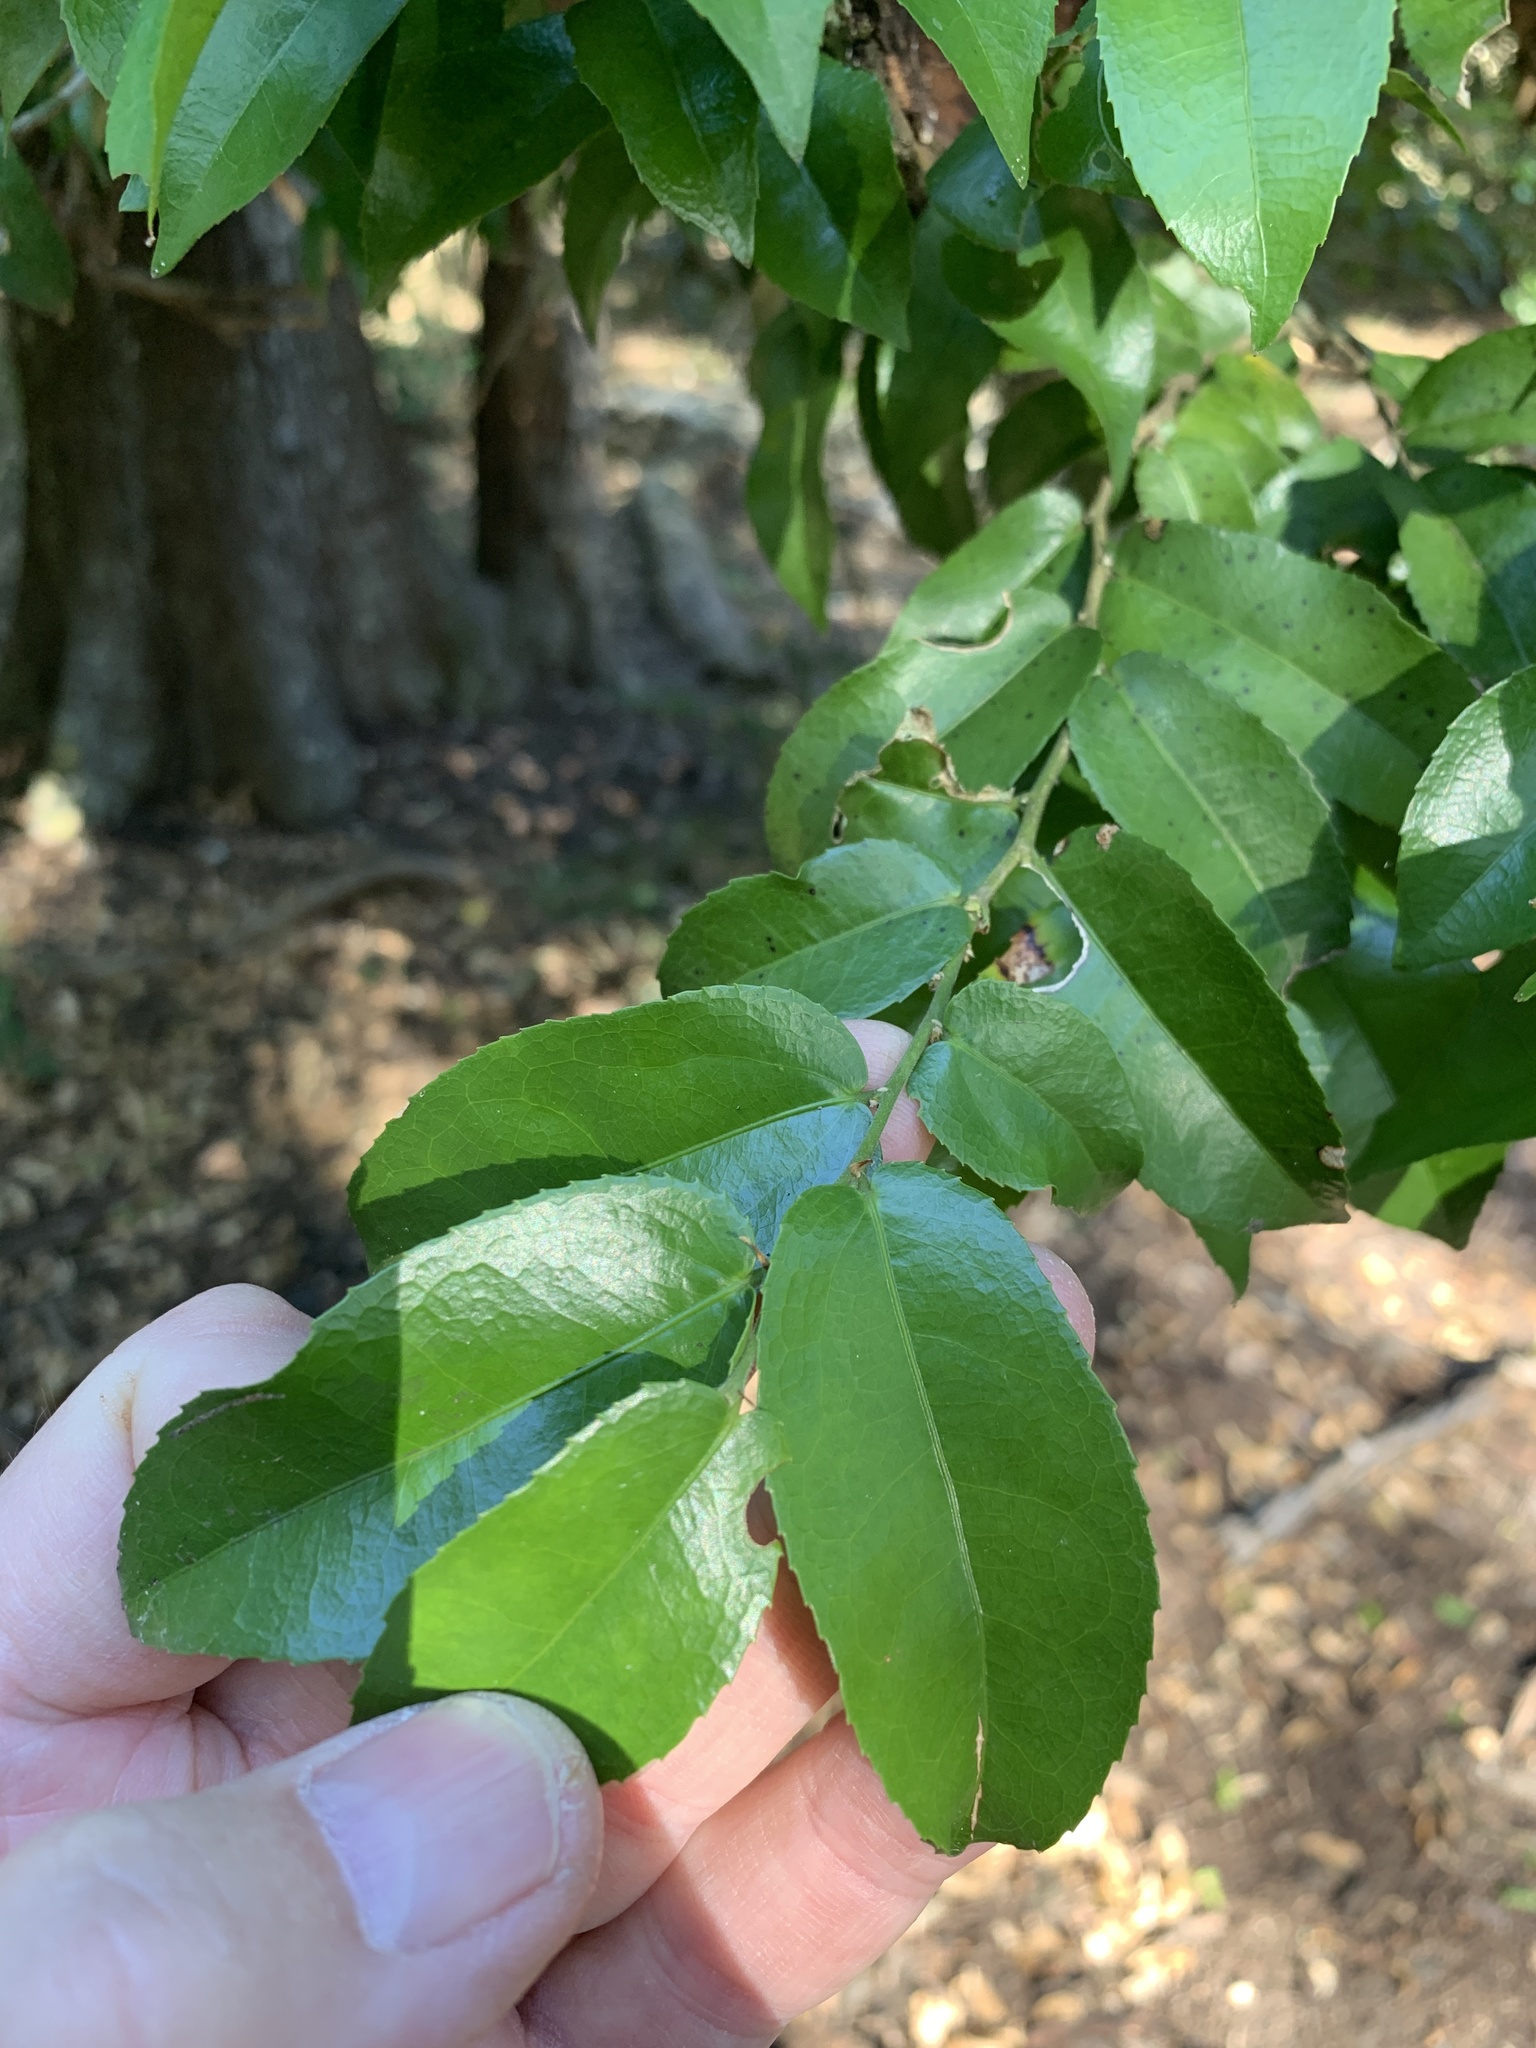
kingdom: Plantae
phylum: Tracheophyta
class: Magnoliopsida
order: Malpighiales
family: Putranjivaceae
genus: Drypetes
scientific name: Drypetes arguta
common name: Water ironplum
